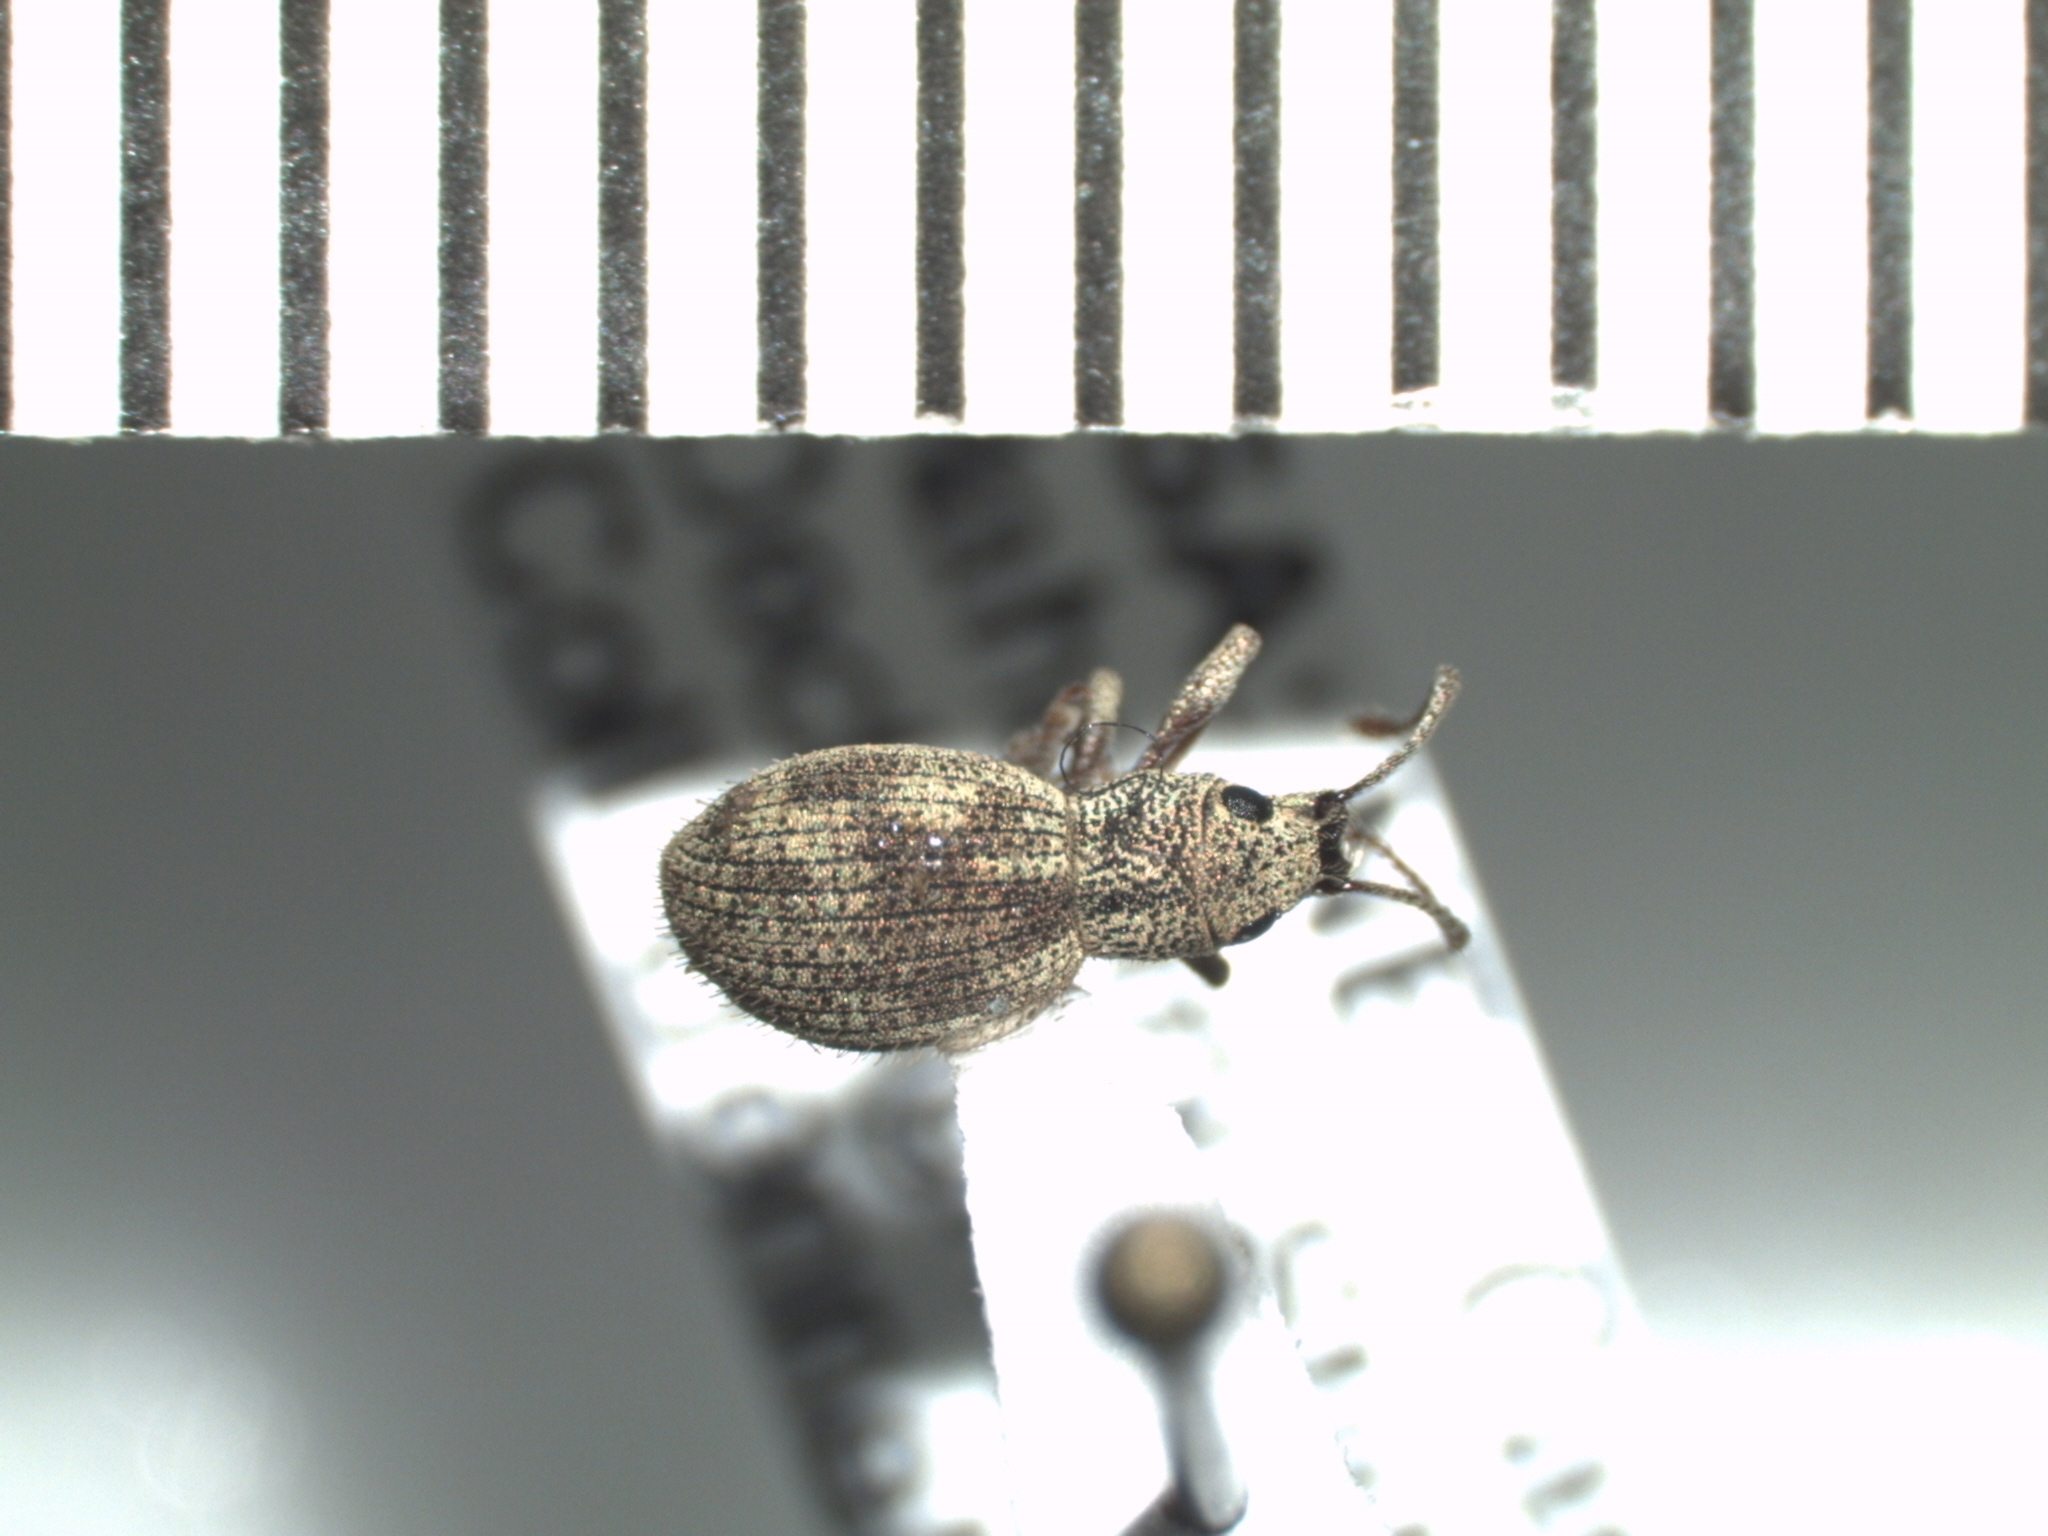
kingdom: Animalia
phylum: Arthropoda
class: Insecta
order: Coleoptera
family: Curculionidae
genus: Calomycterus
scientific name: Calomycterus setarius
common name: Weevil
